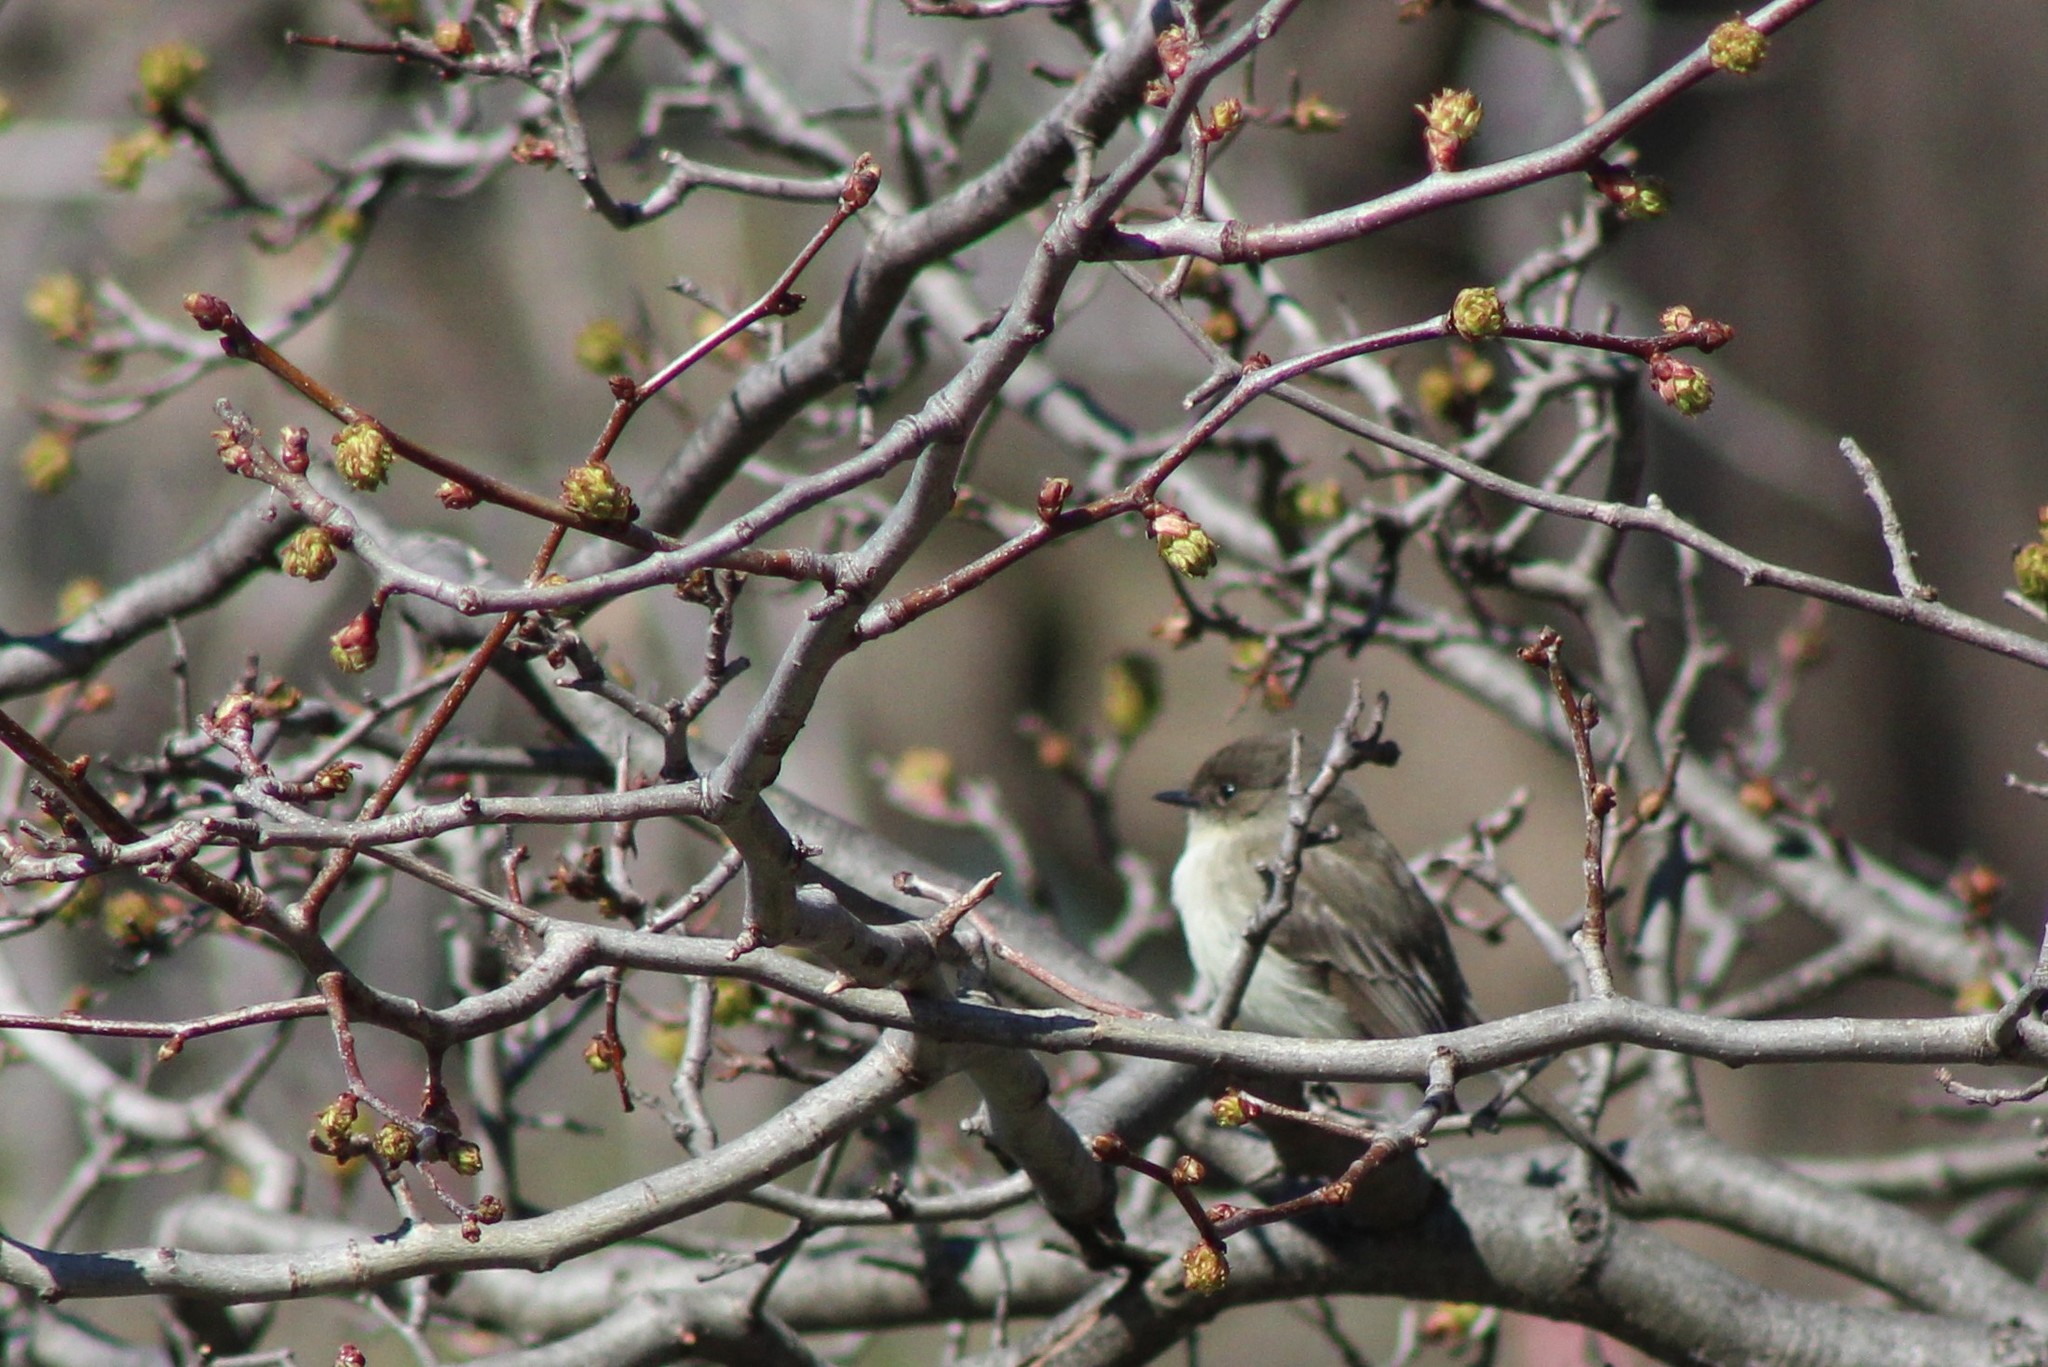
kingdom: Animalia
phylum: Chordata
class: Aves
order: Passeriformes
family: Tyrannidae
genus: Sayornis
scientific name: Sayornis phoebe
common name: Eastern phoebe
